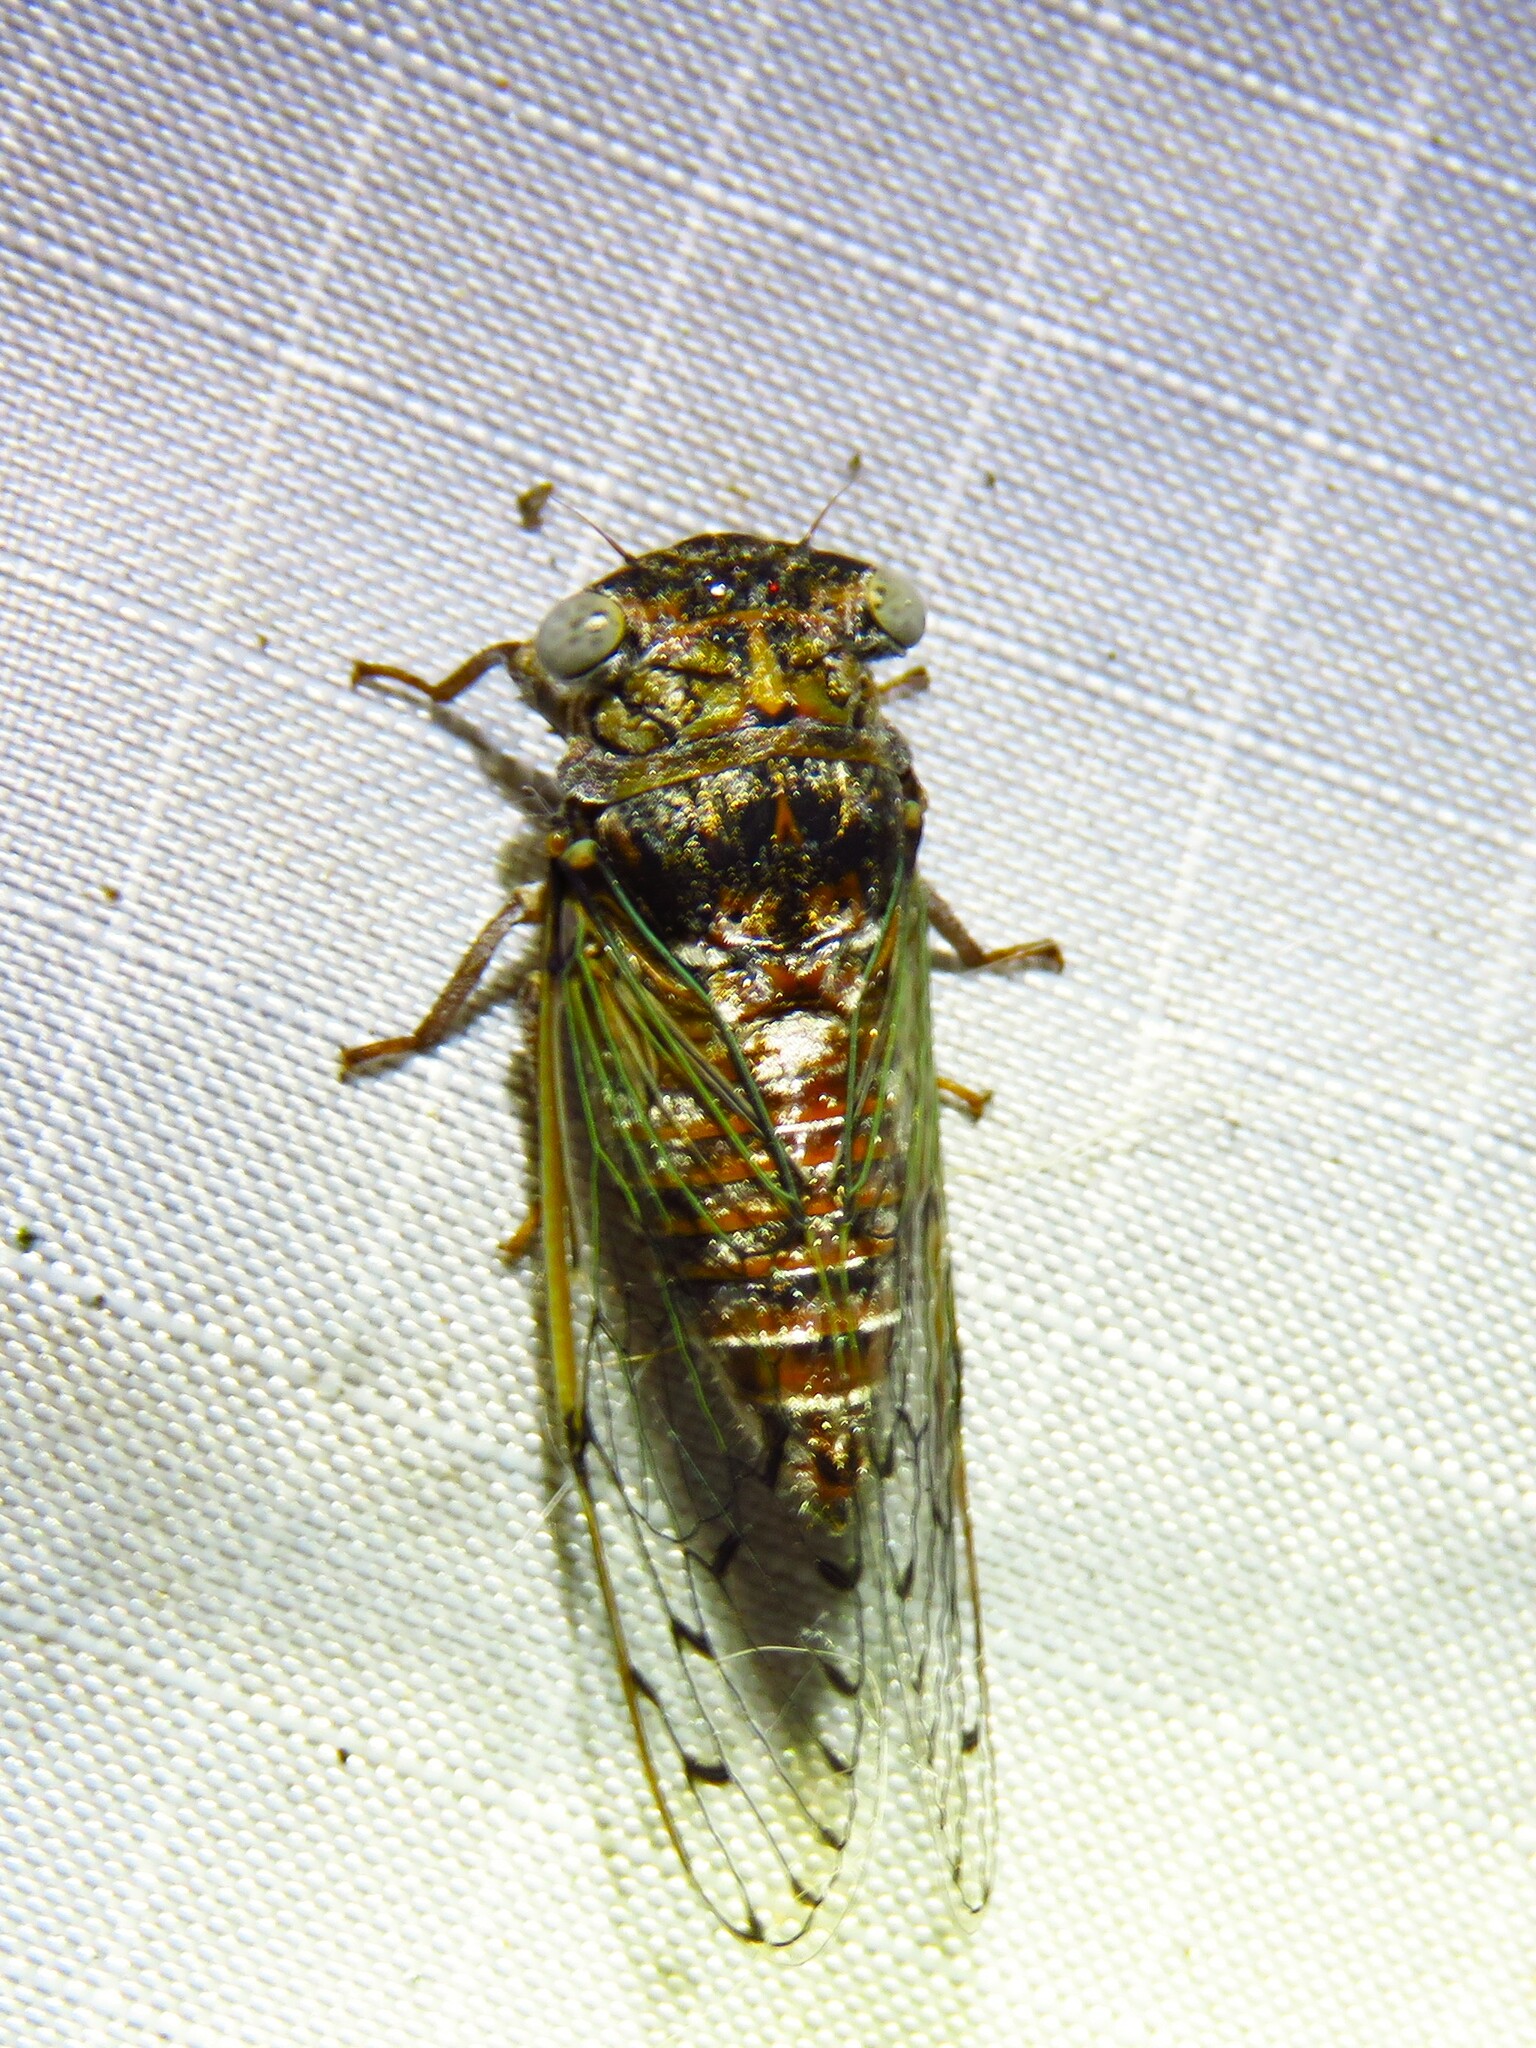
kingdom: Animalia
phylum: Arthropoda
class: Insecta
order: Hemiptera
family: Cicadidae
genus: Pacarina
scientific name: Pacarina puella
